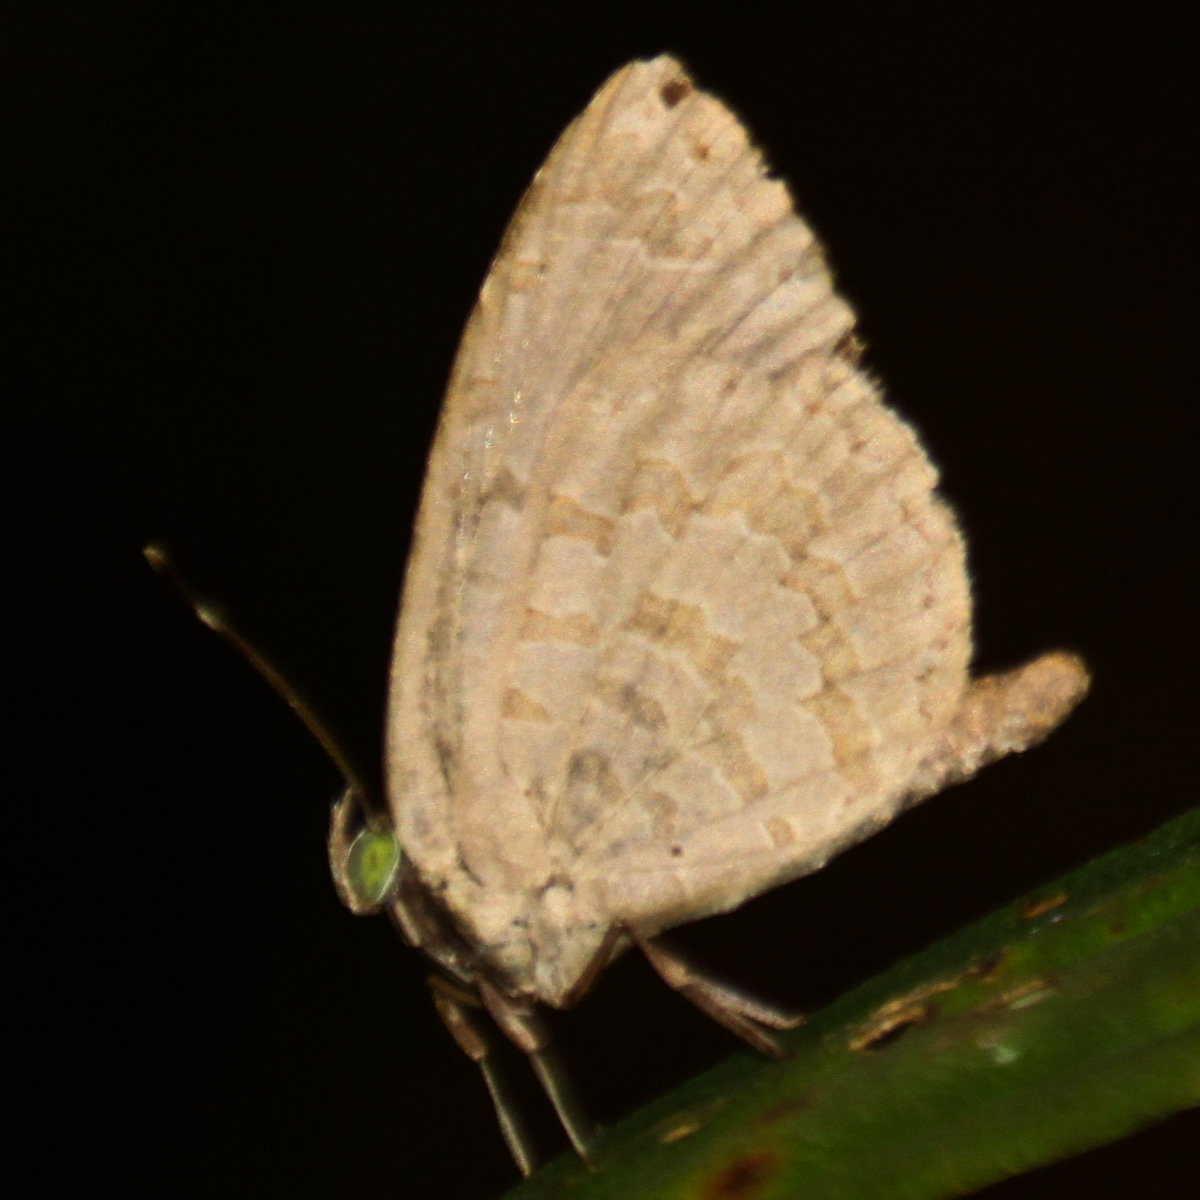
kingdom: Animalia
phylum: Arthropoda
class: Insecta
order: Lepidoptera
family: Lycaenidae
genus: Miletus
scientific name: Miletus chinensis
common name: Common brownie
